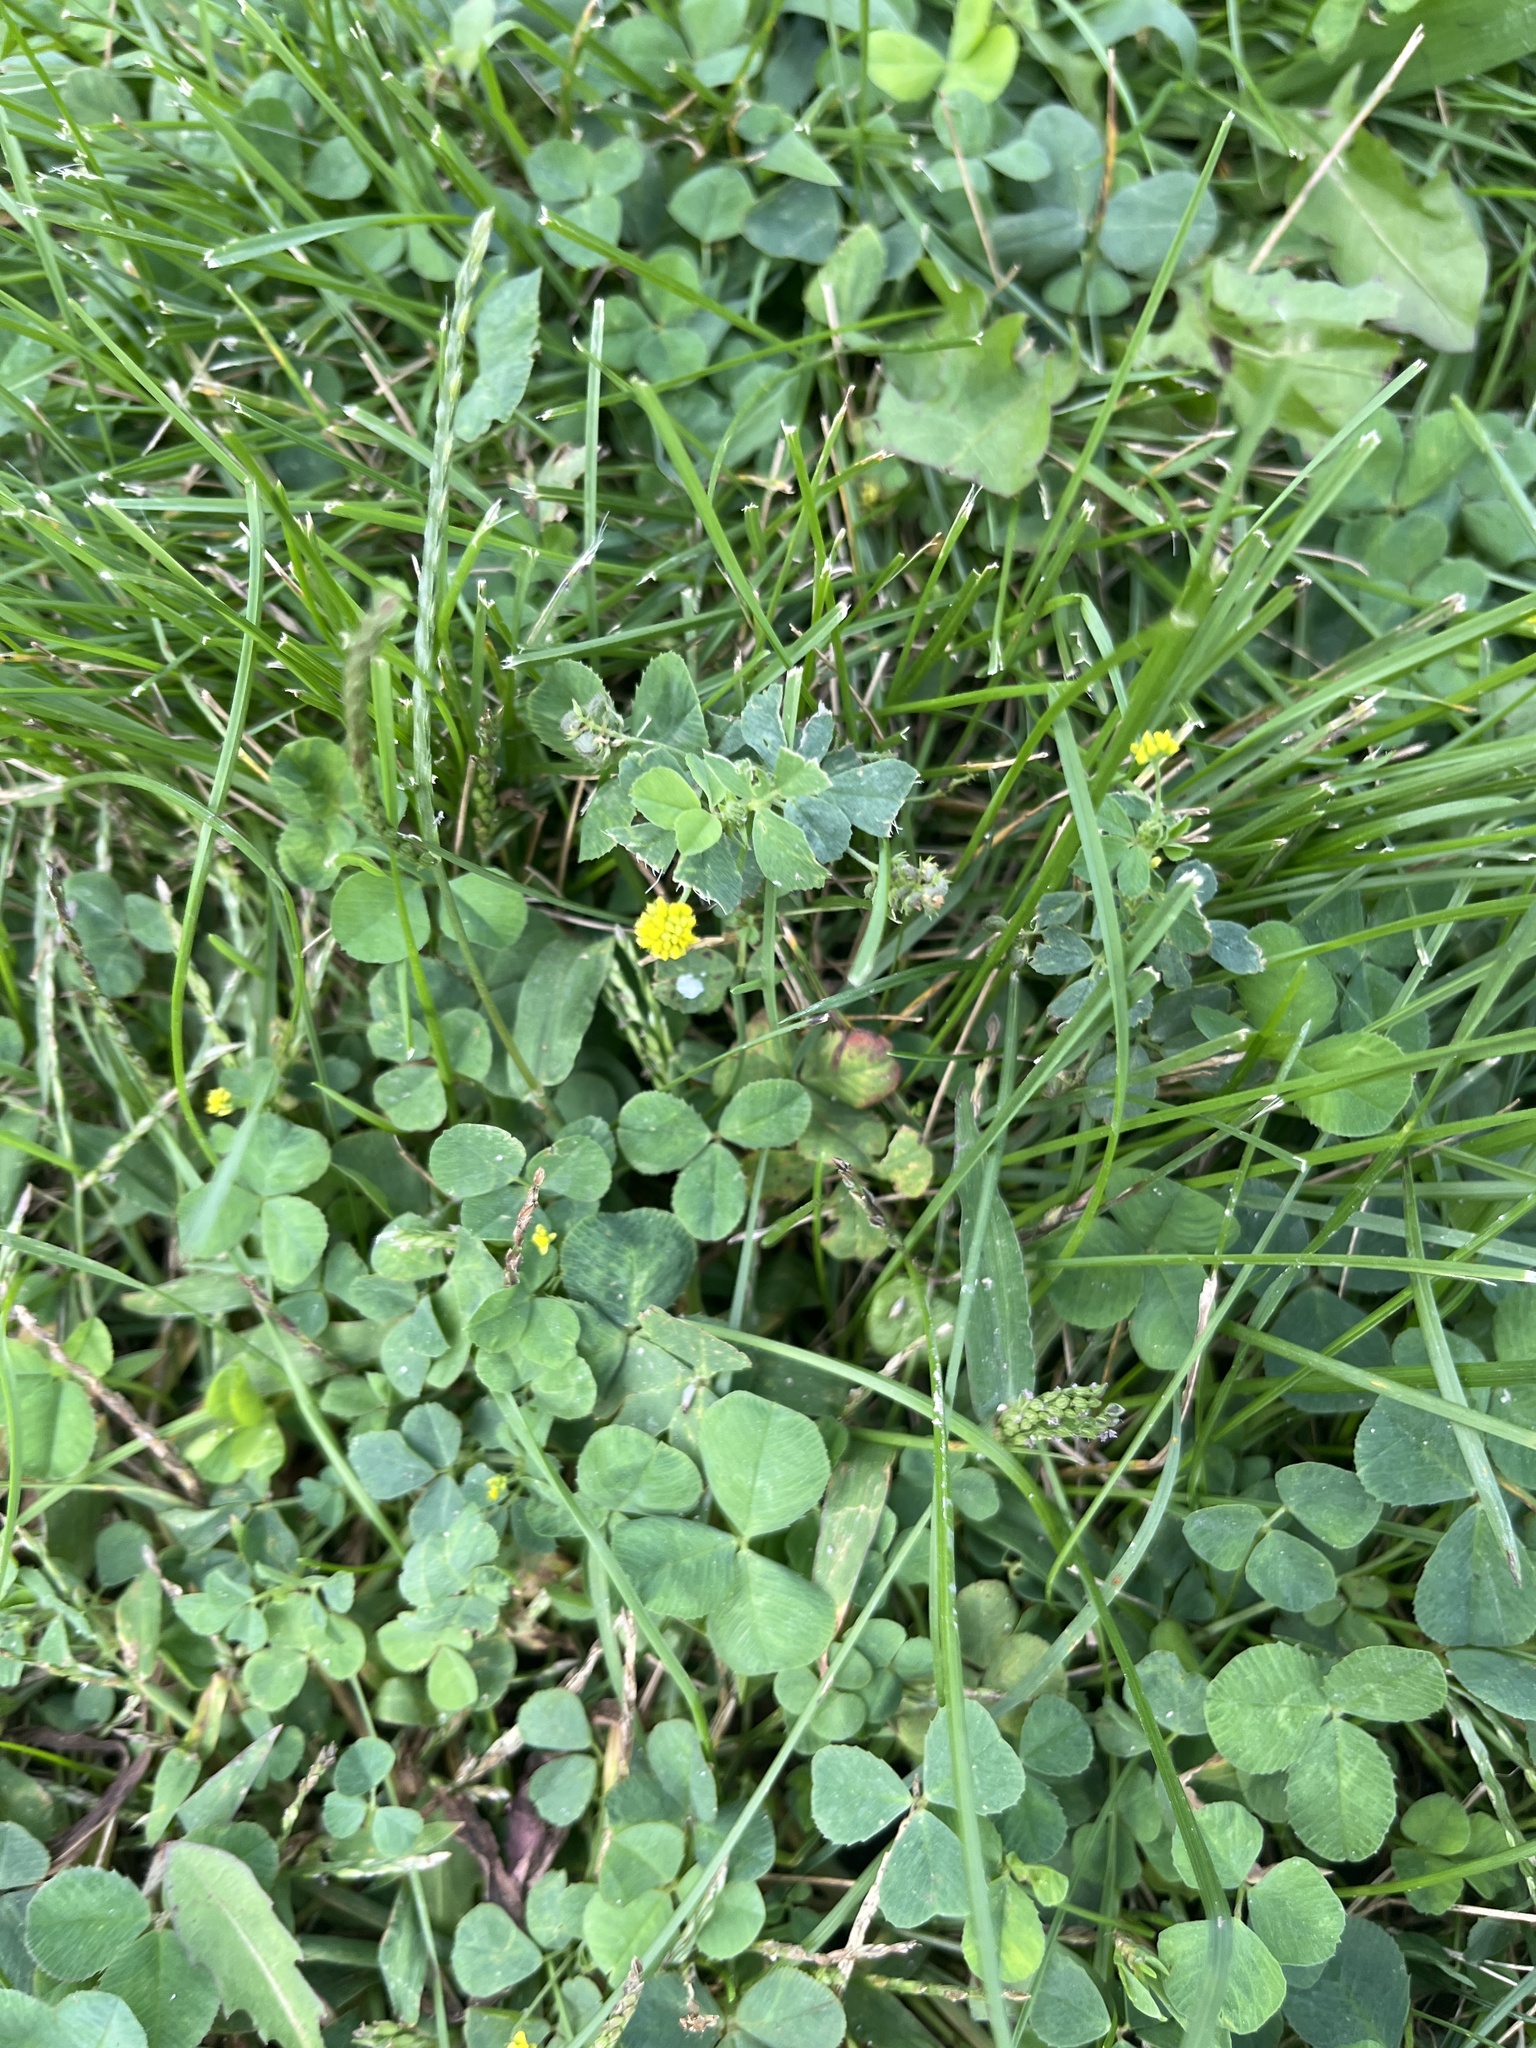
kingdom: Plantae
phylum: Tracheophyta
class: Magnoliopsida
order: Fabales
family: Fabaceae
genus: Medicago
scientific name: Medicago lupulina
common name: Black medick
